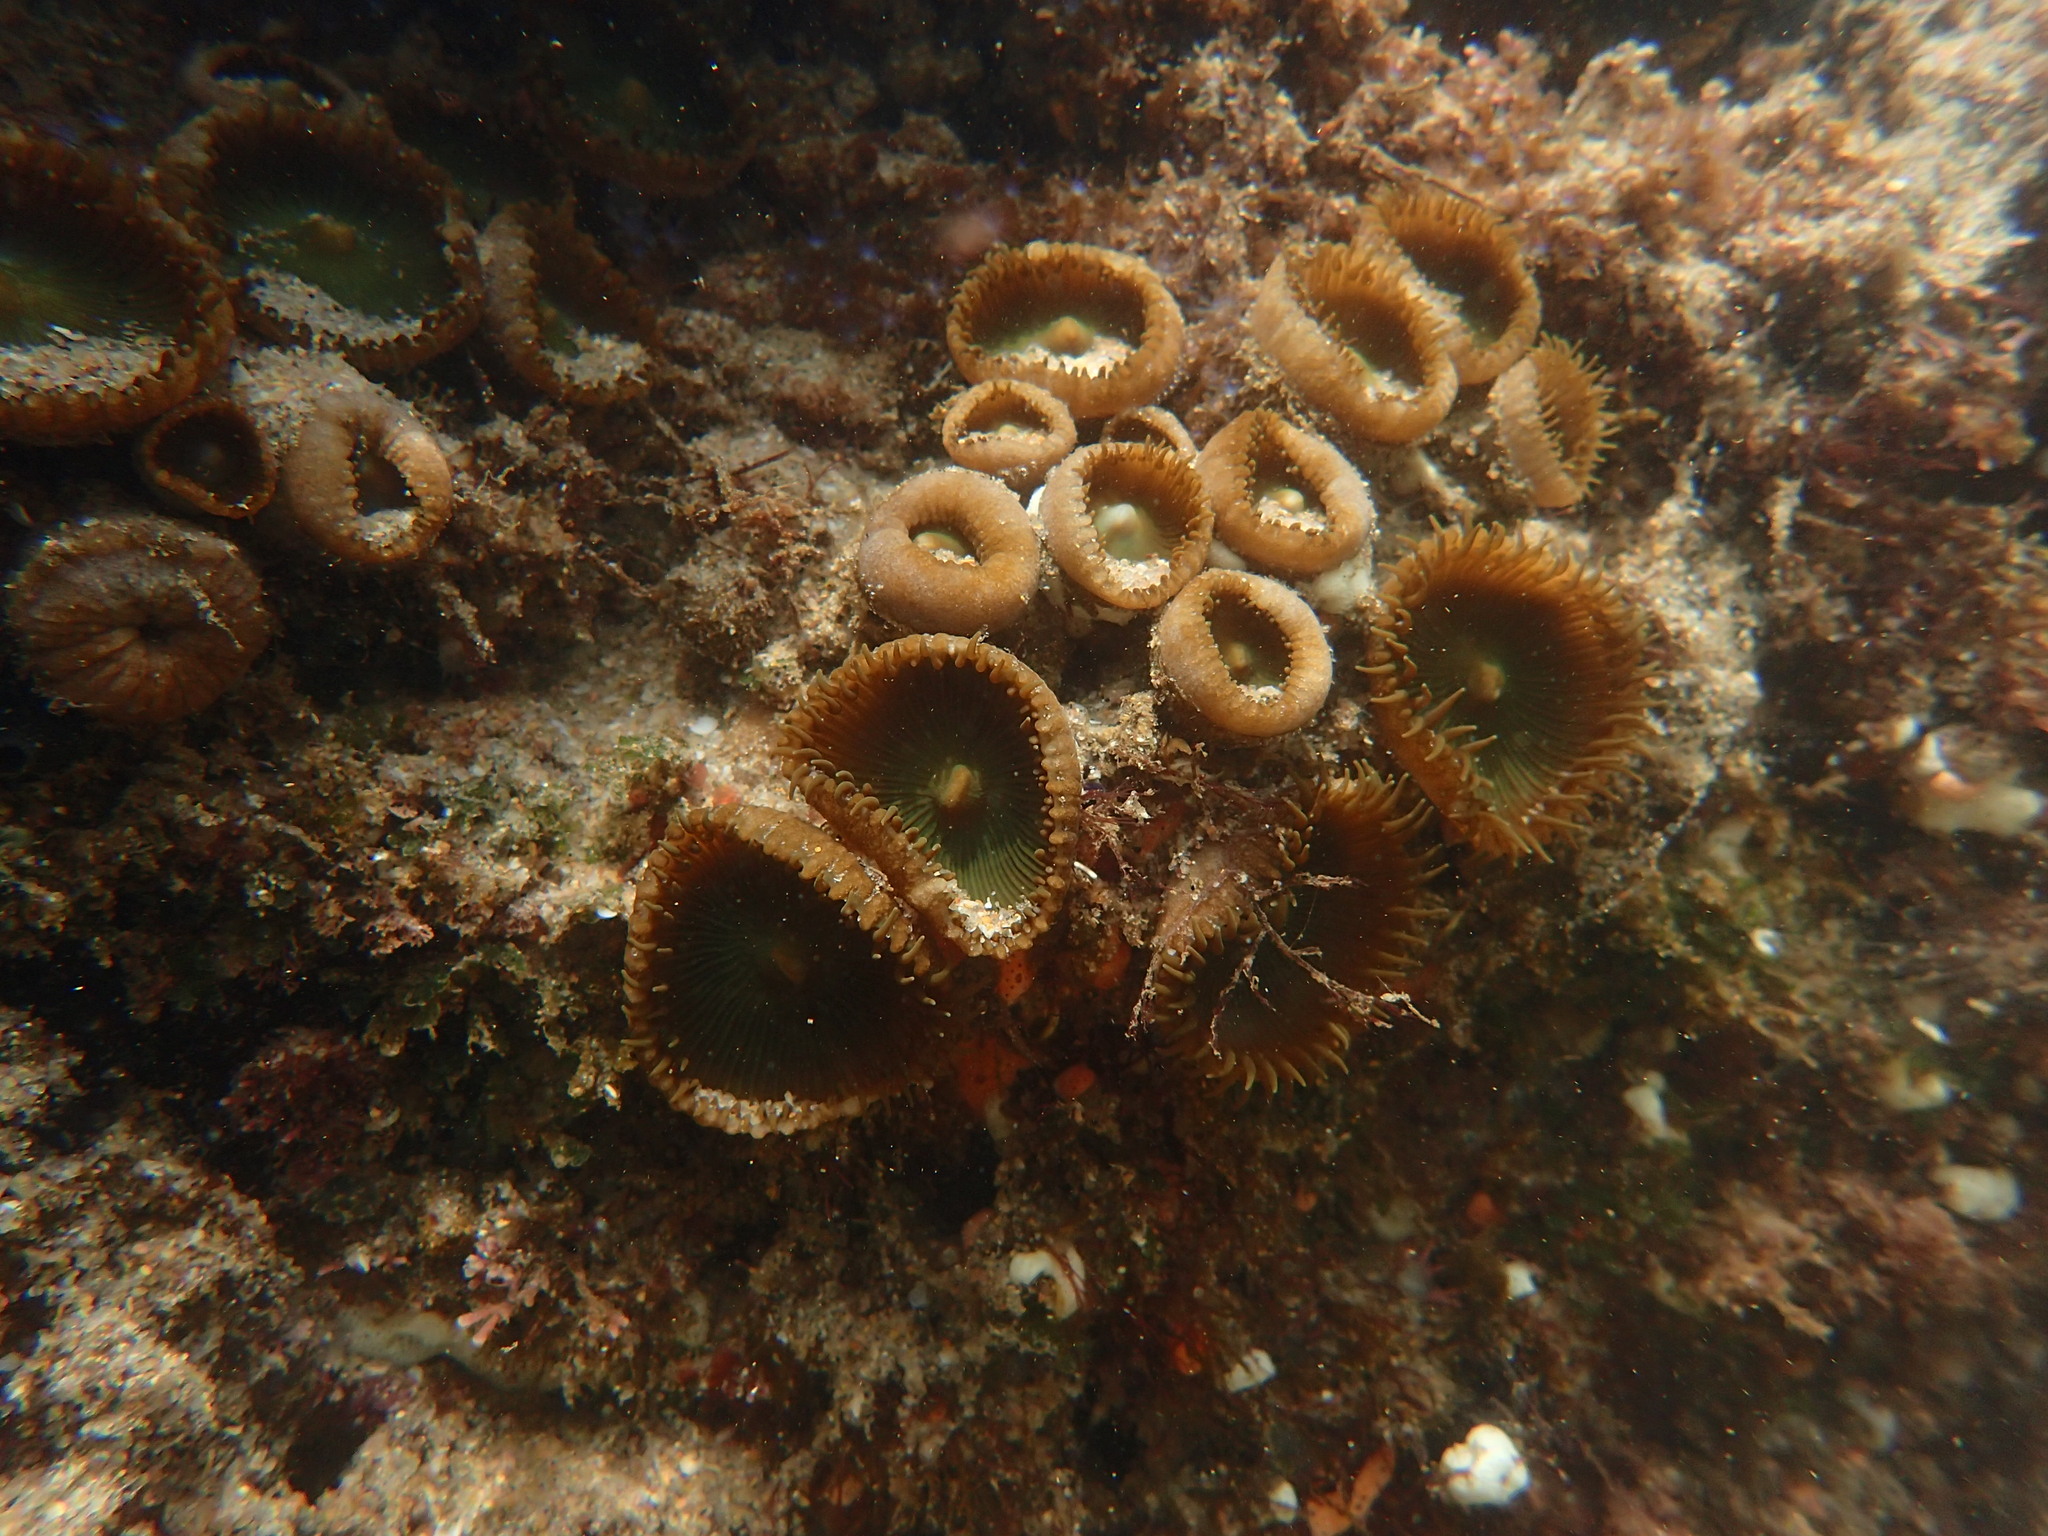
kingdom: Animalia
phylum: Cnidaria
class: Anthozoa
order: Zoantharia
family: Sphenopidae
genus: Palythoa
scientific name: Palythoa mutuki
